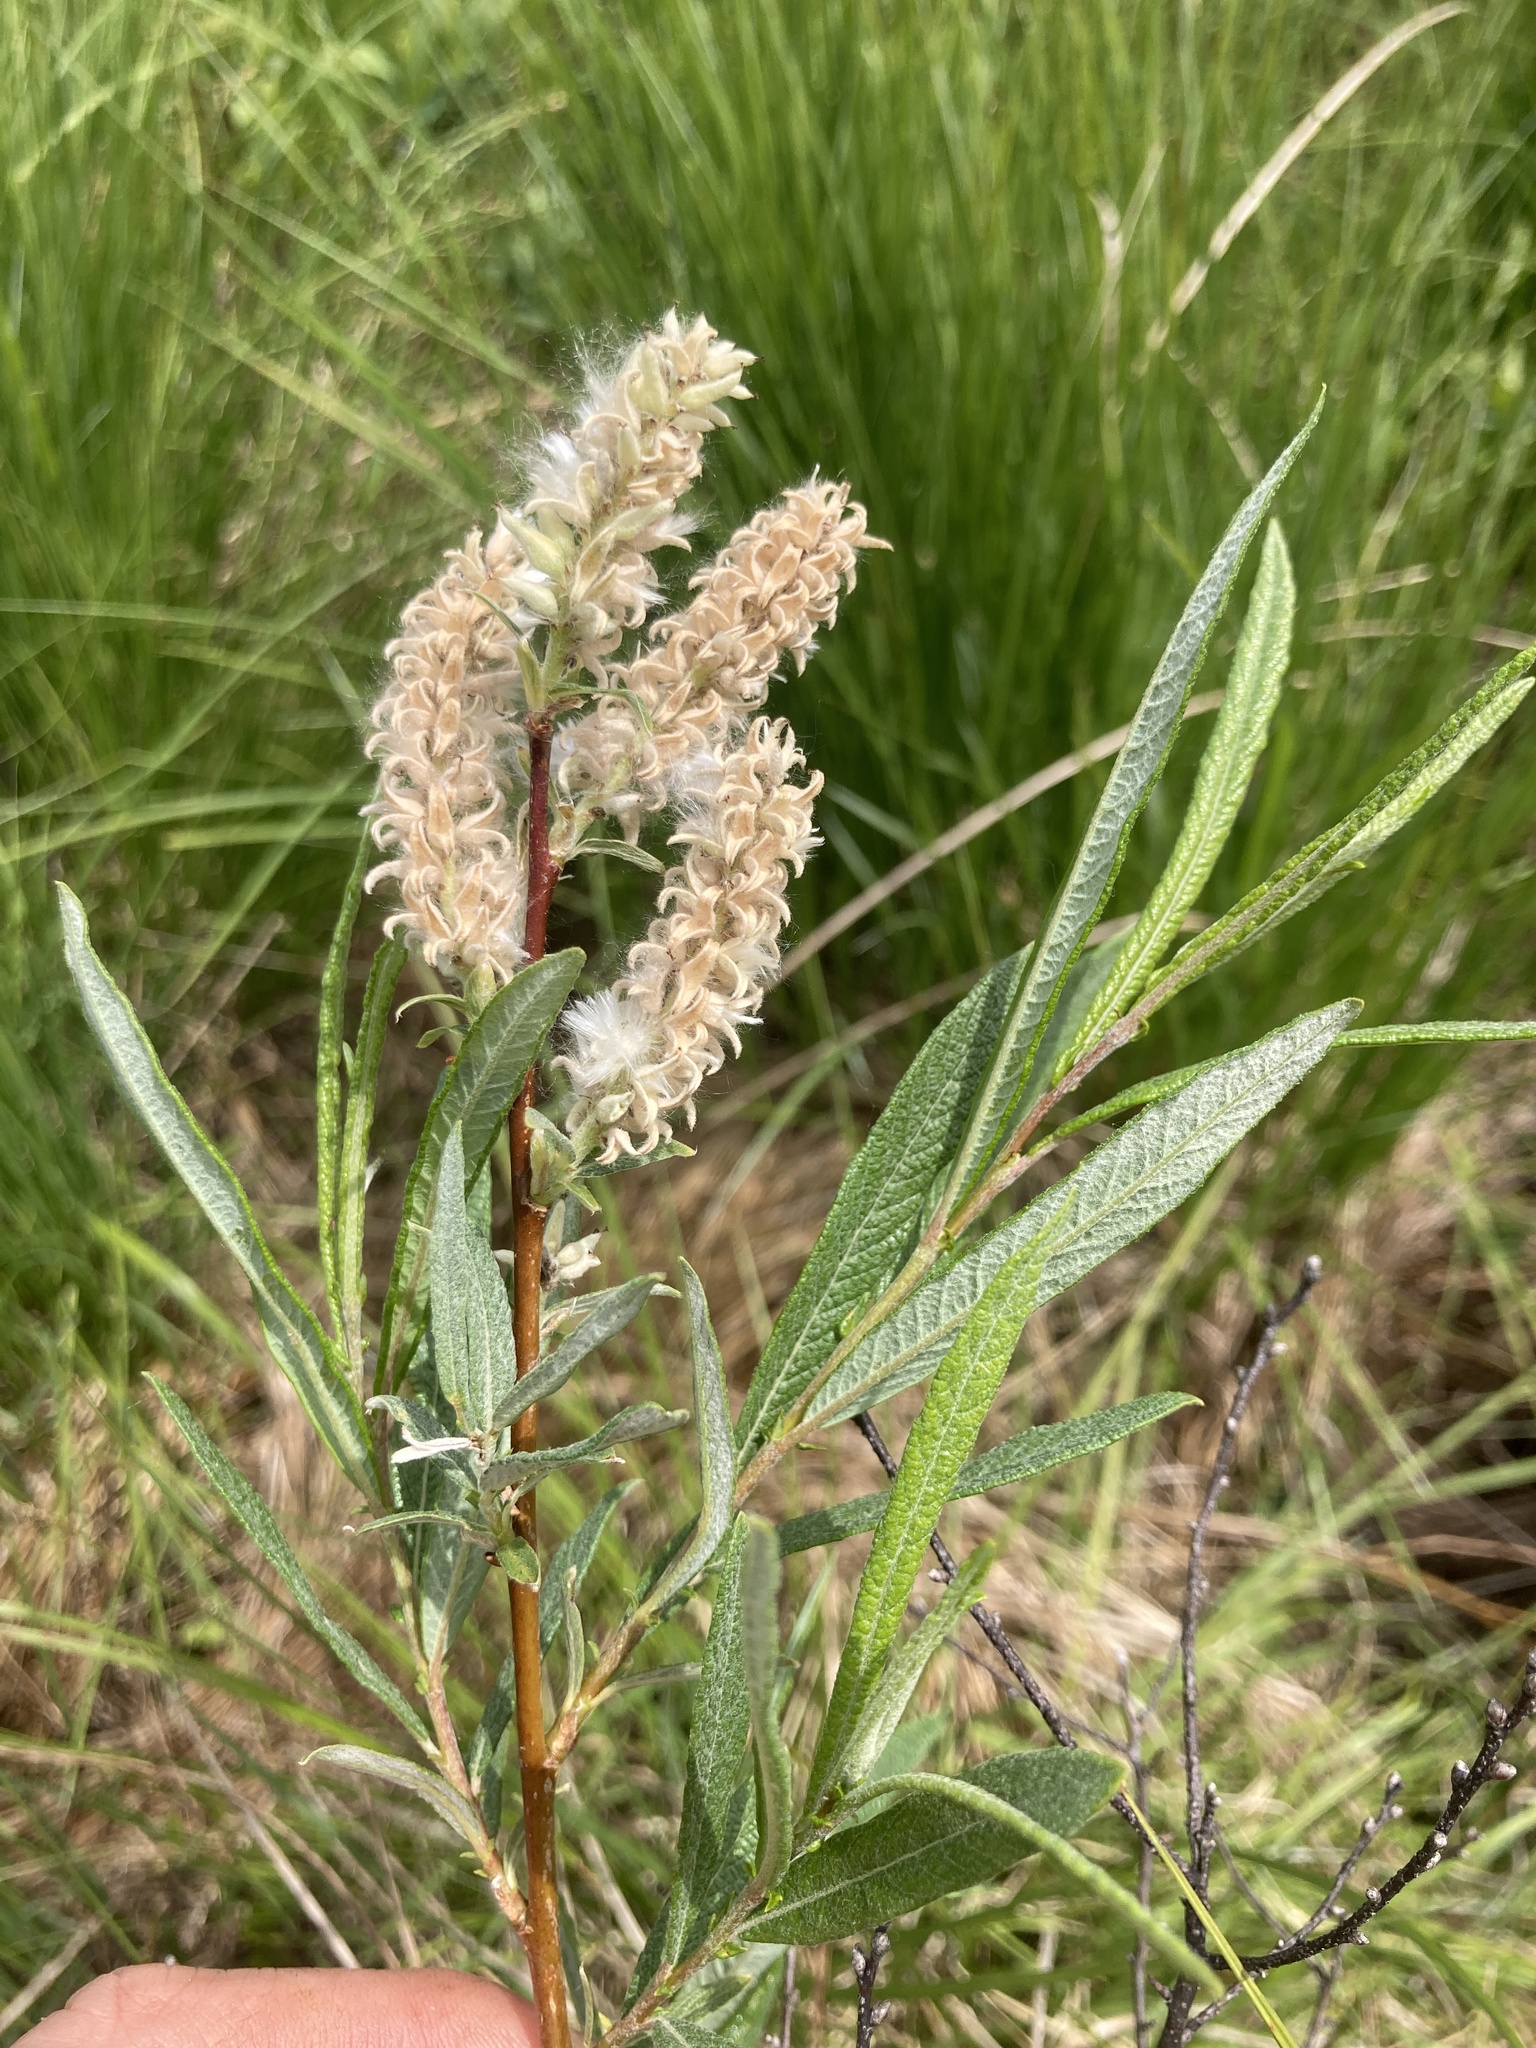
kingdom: Plantae
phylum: Tracheophyta
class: Magnoliopsida
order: Malpighiales
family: Salicaceae
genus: Salix
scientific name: Salix candida
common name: Hoary willow
